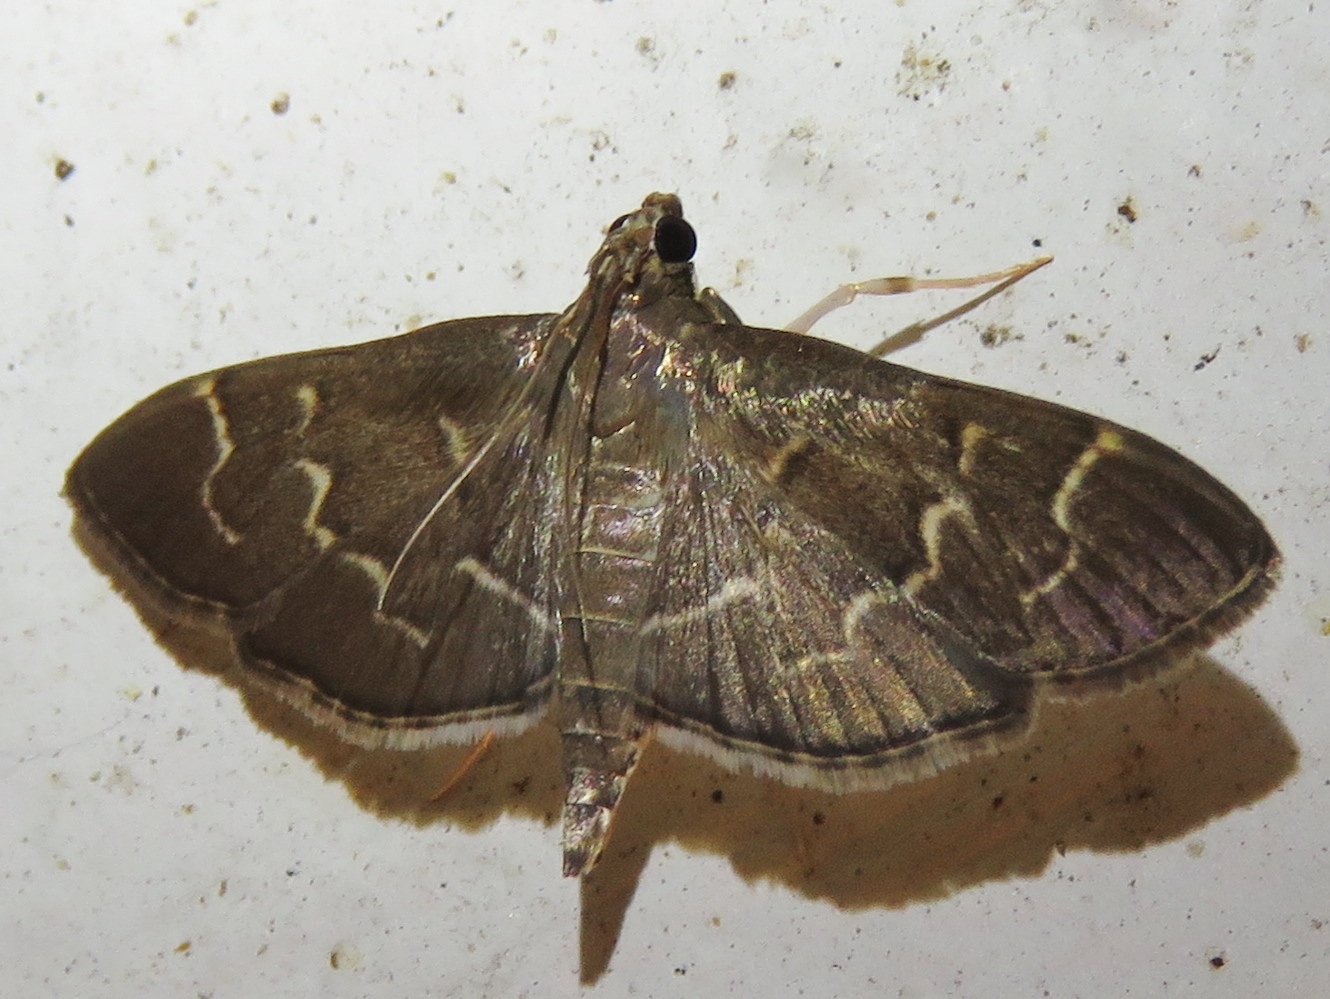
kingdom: Animalia
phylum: Arthropoda
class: Insecta
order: Lepidoptera
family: Crambidae
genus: Pilocrocis
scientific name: Pilocrocis ramentalis
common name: Scraped pilocrocis
